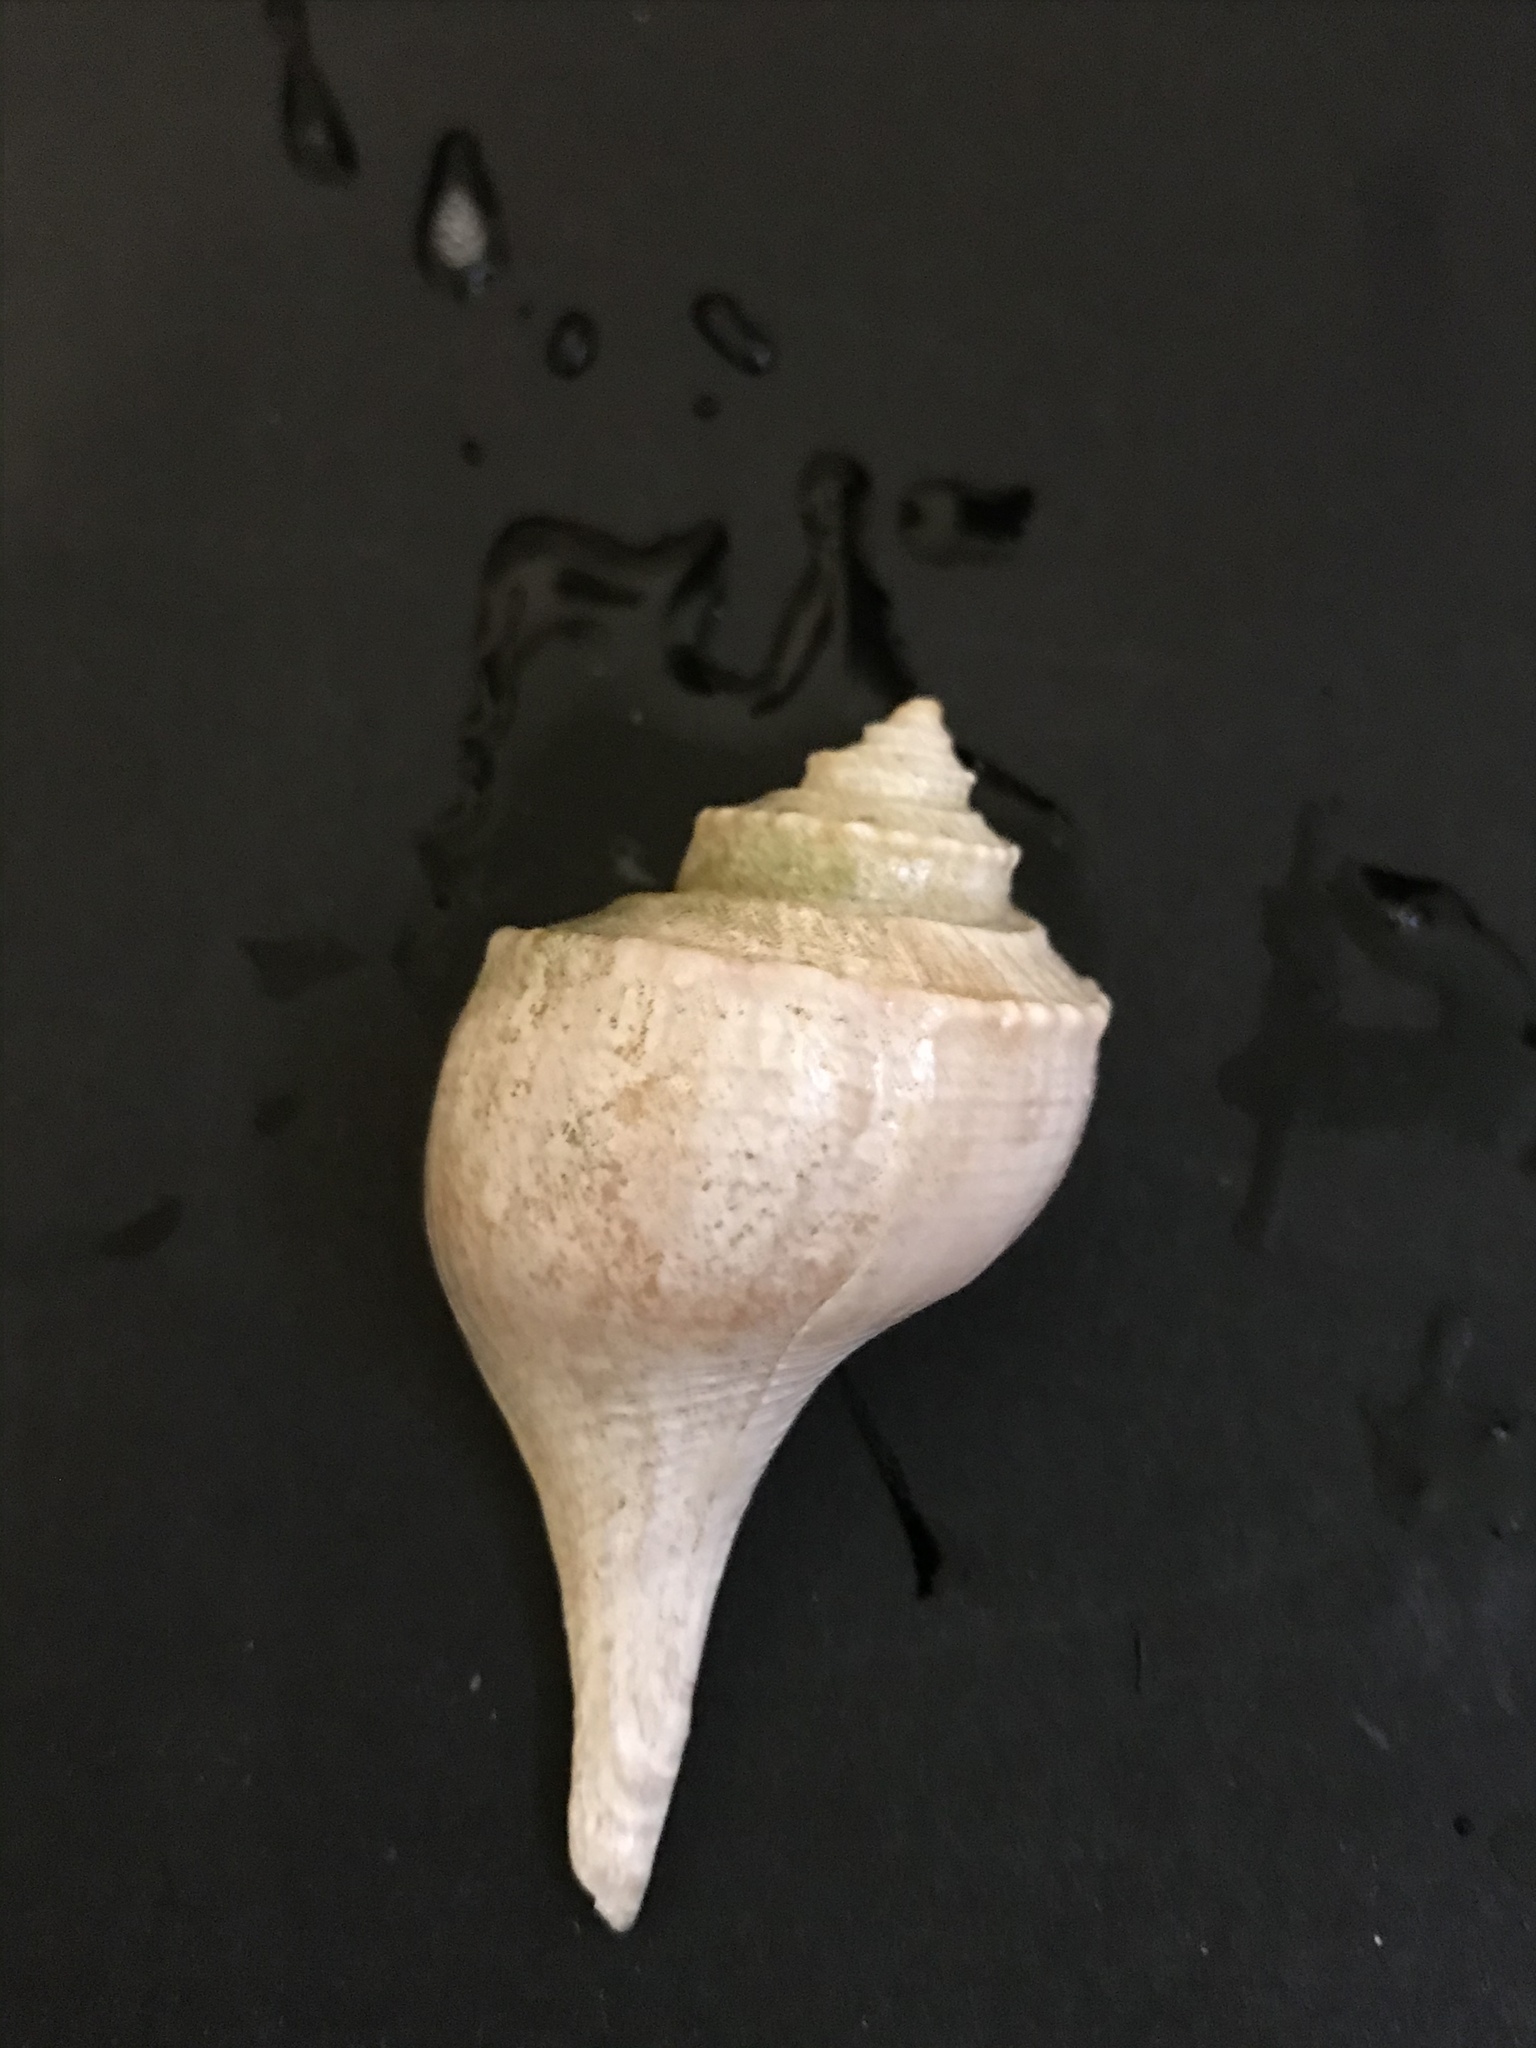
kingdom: Animalia
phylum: Mollusca
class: Gastropoda
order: Neogastropoda
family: Busyconidae
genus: Busycotypus
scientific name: Busycotypus canaliculatus
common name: Channeled whelk
